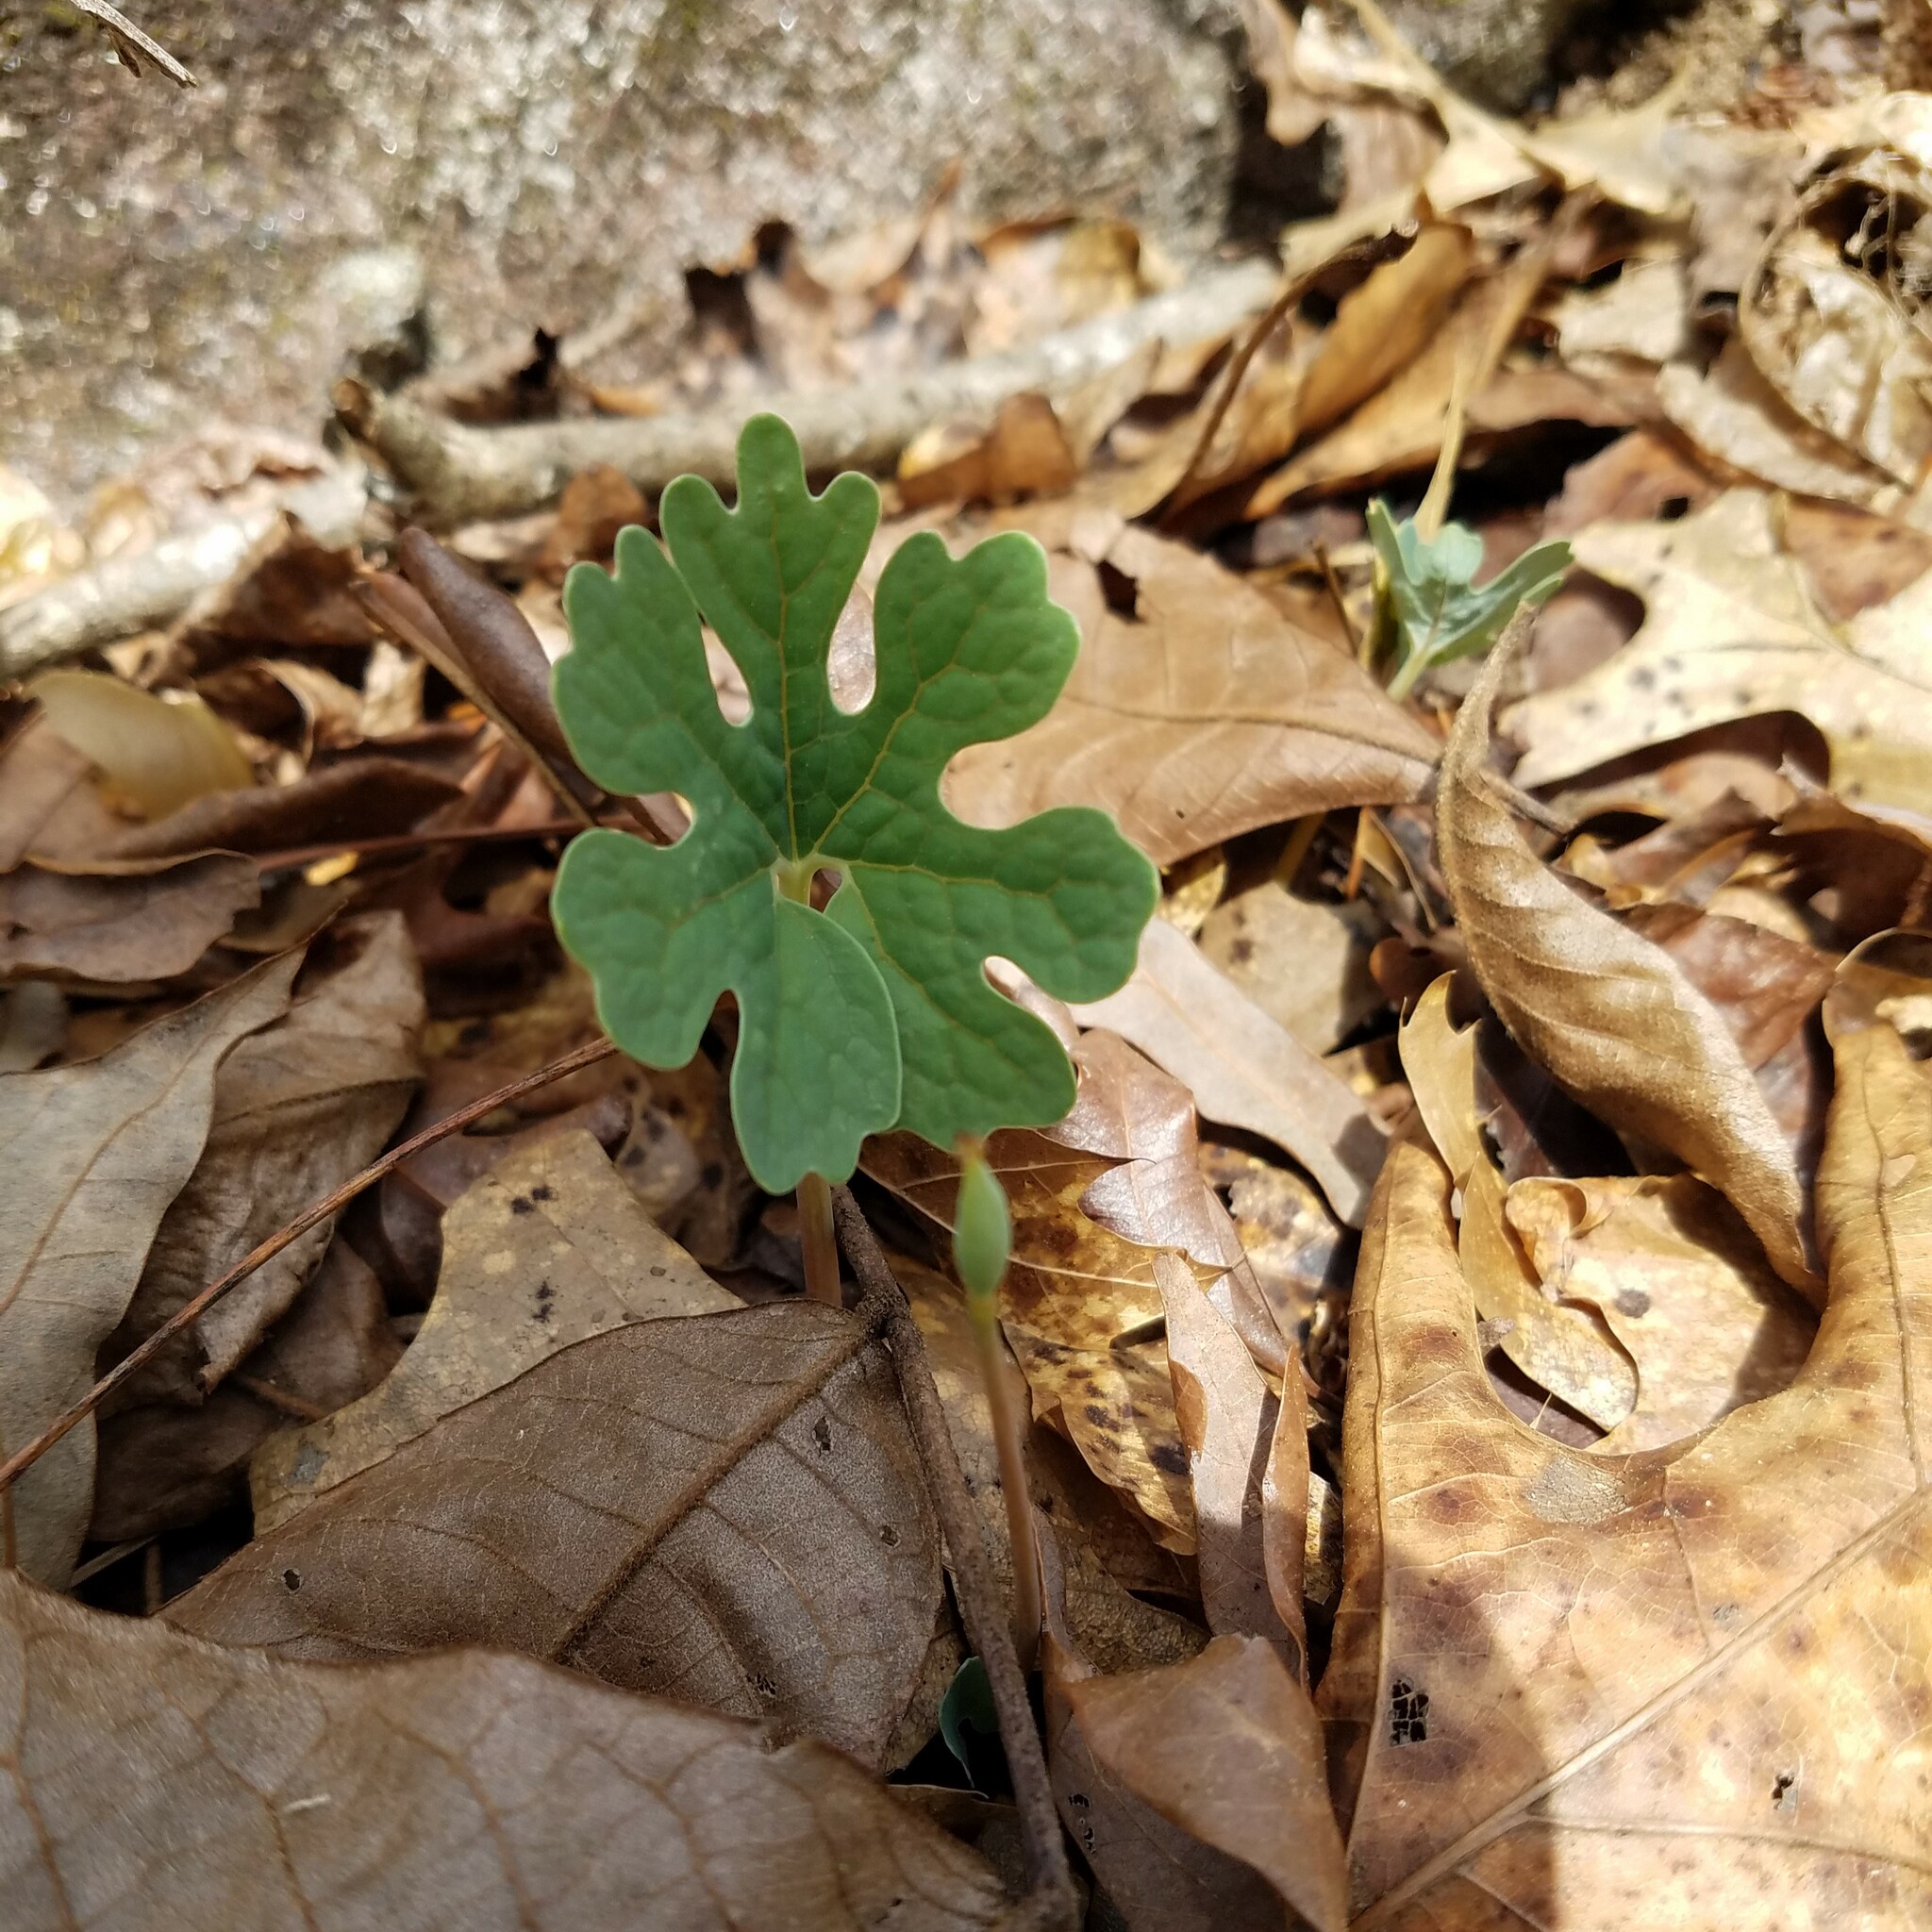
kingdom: Plantae
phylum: Tracheophyta
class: Magnoliopsida
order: Ranunculales
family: Papaveraceae
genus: Sanguinaria
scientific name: Sanguinaria canadensis
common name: Bloodroot
